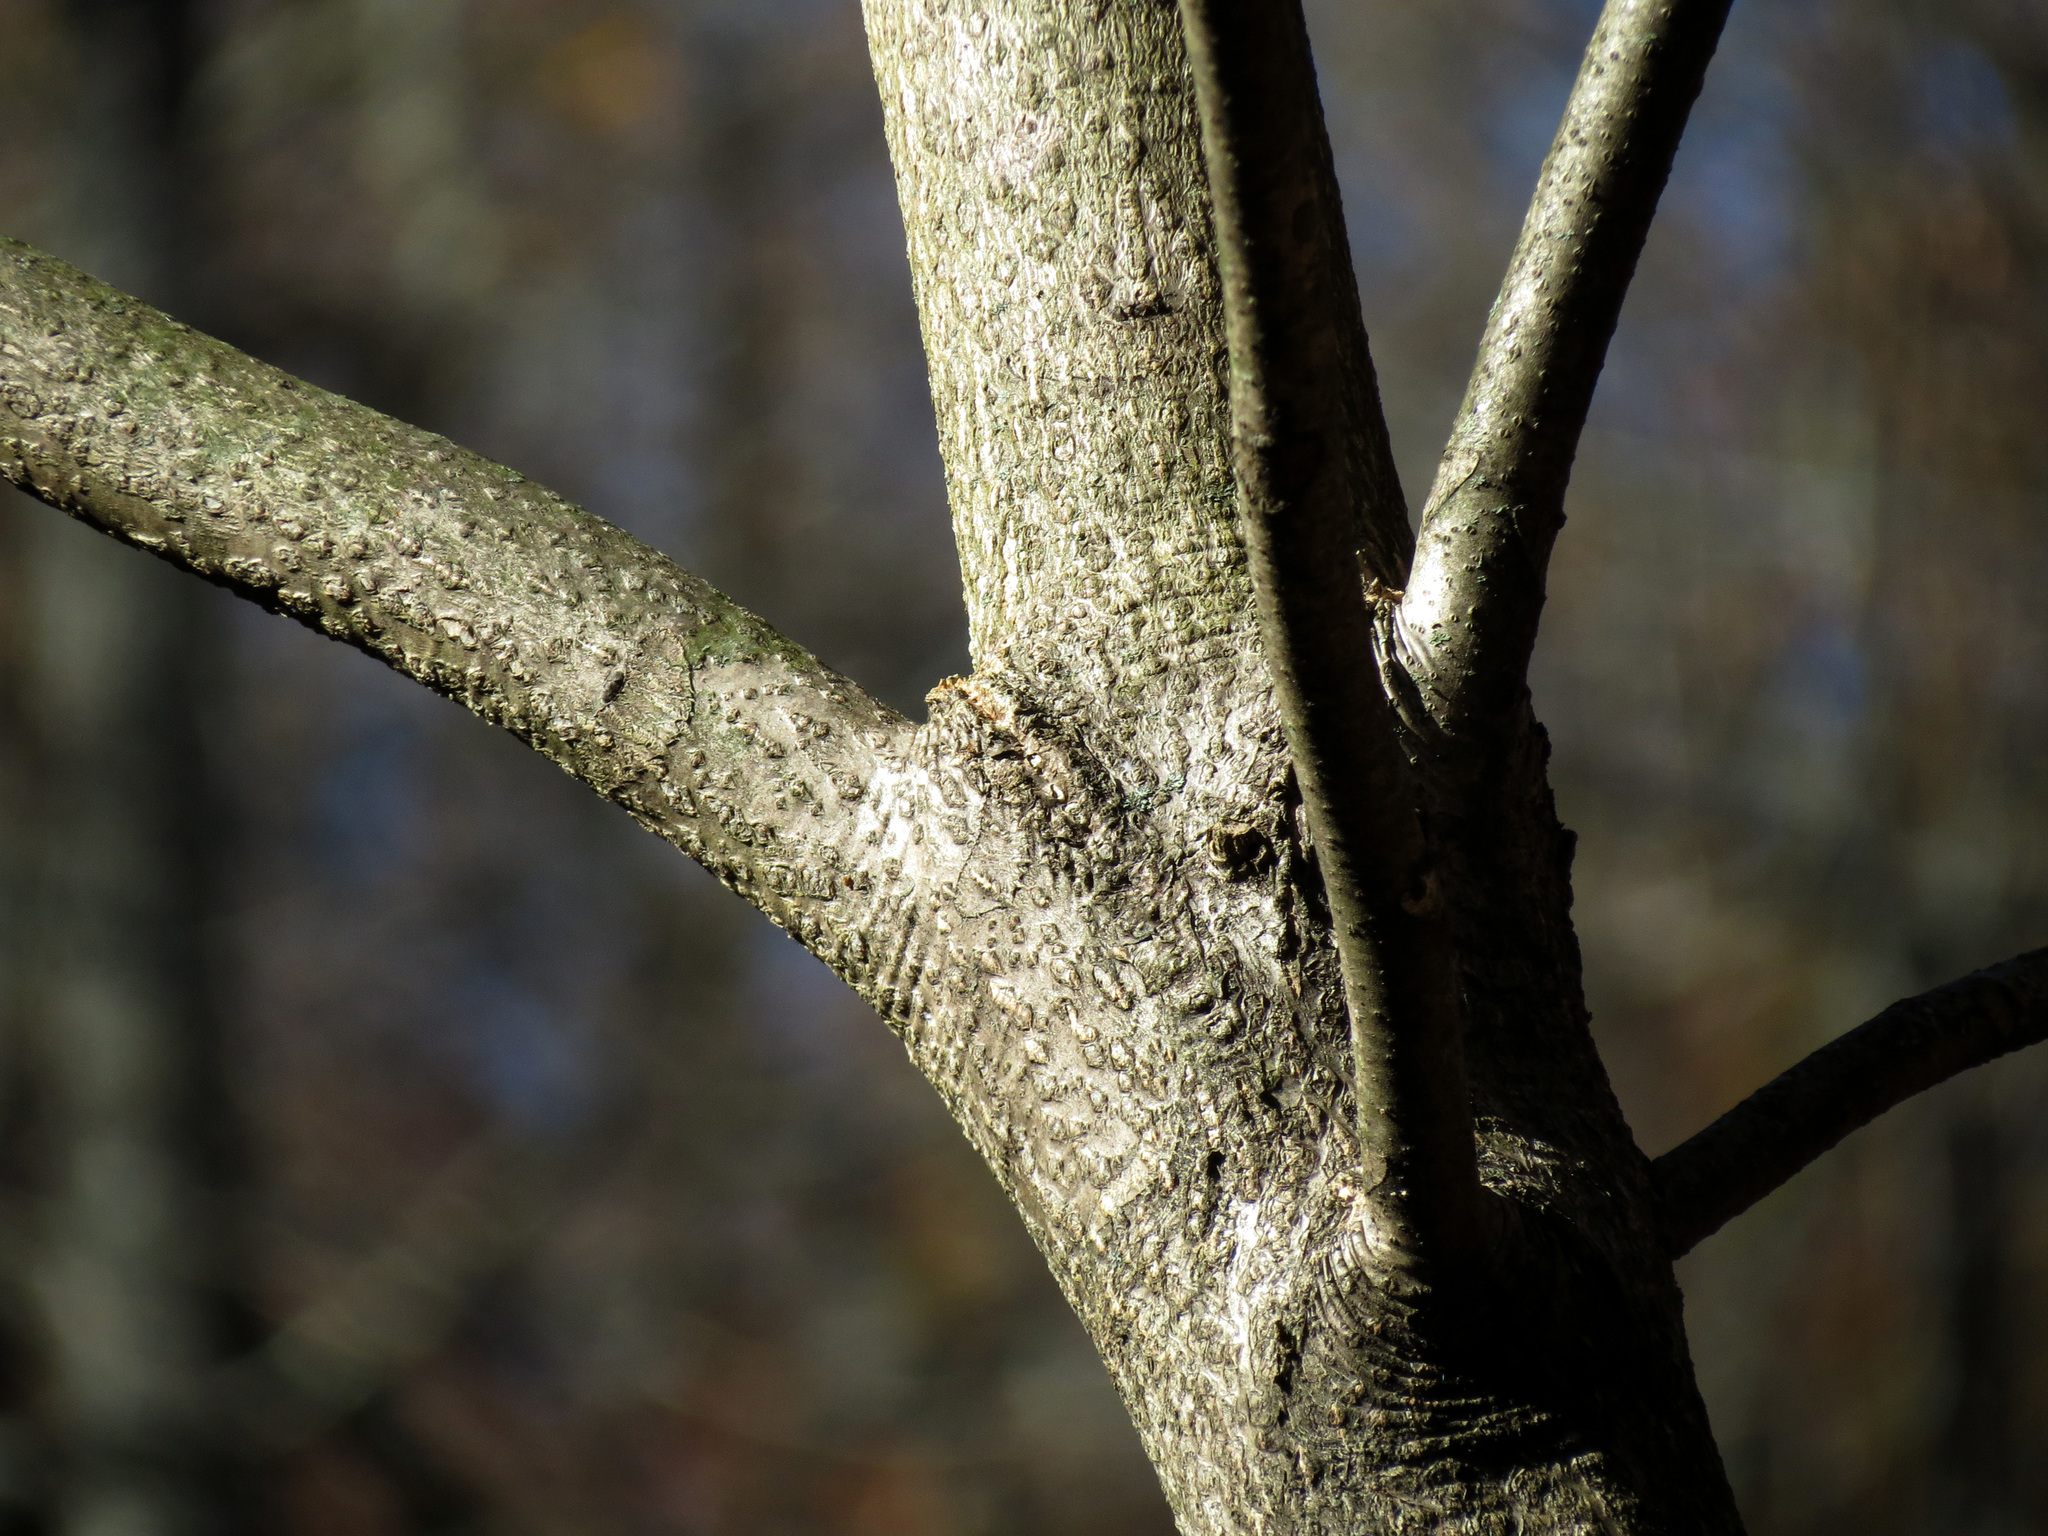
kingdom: Plantae
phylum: Tracheophyta
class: Magnoliopsida
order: Sapindales
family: Simaroubaceae
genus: Ailanthus
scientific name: Ailanthus altissima
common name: Tree-of-heaven
